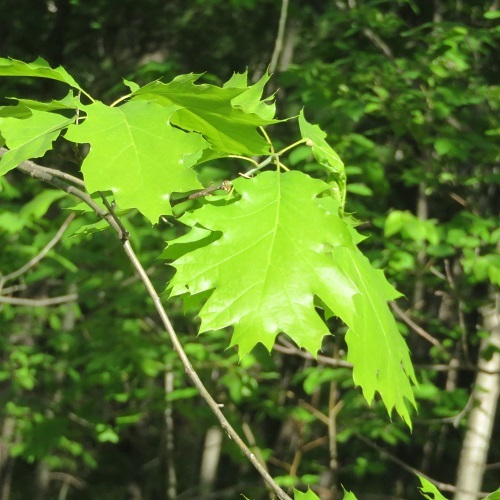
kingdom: Plantae
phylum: Tracheophyta
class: Magnoliopsida
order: Fagales
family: Fagaceae
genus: Quercus
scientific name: Quercus rubra
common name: Red oak
